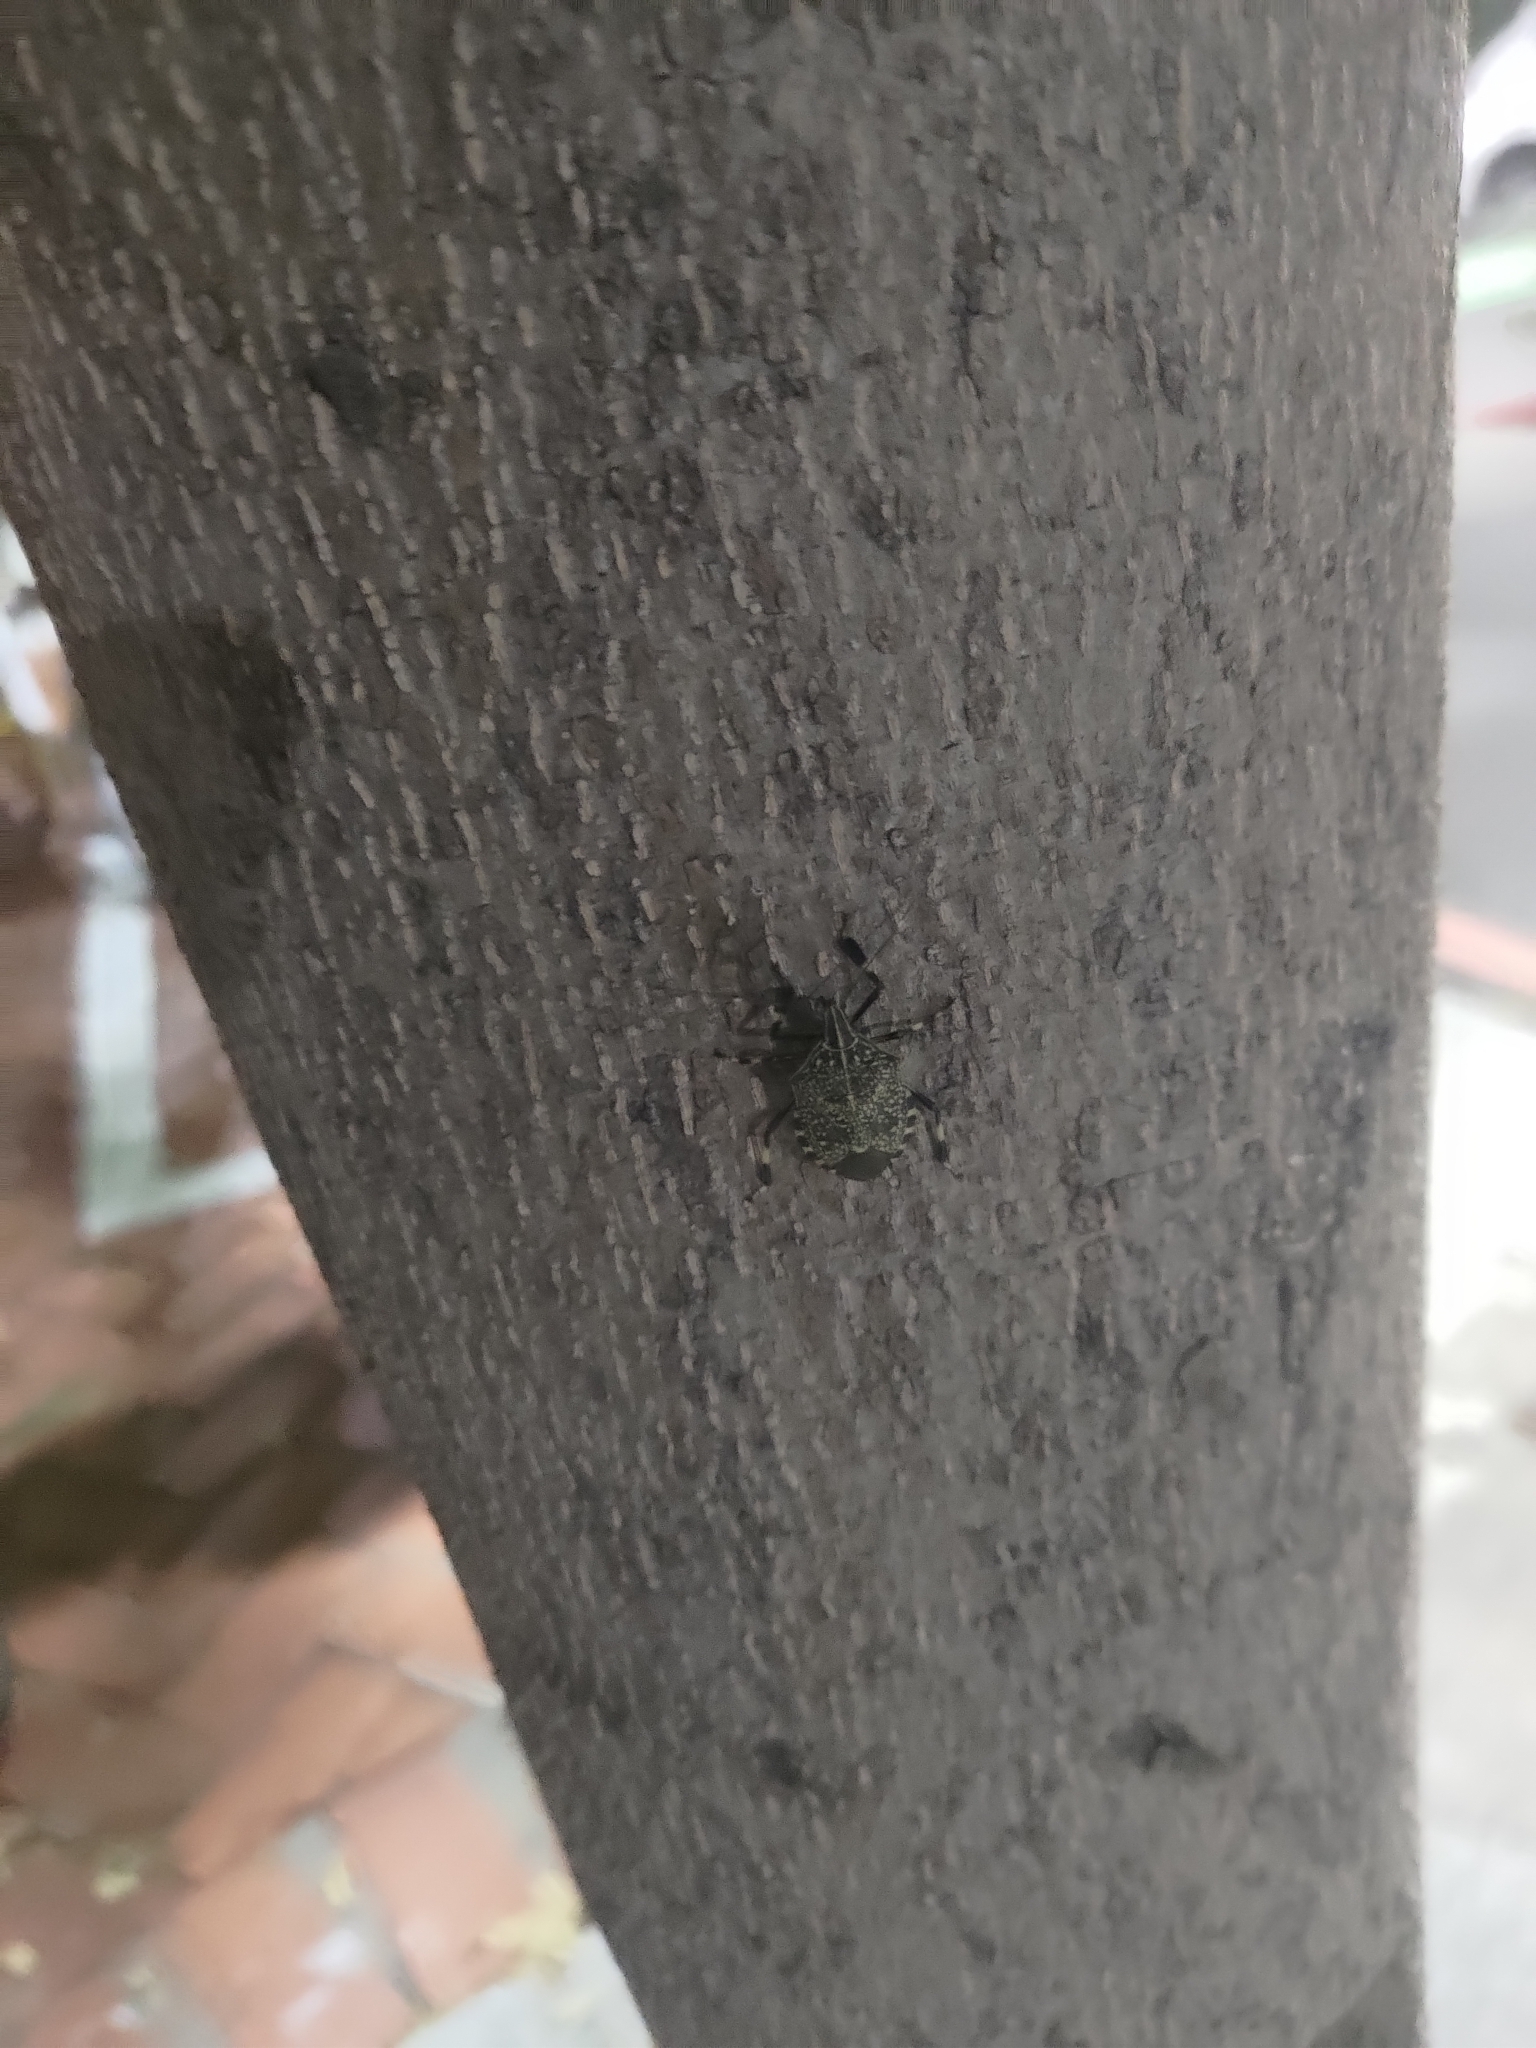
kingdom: Animalia
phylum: Arthropoda
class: Insecta
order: Hemiptera
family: Pentatomidae
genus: Erthesina
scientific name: Erthesina fullo
